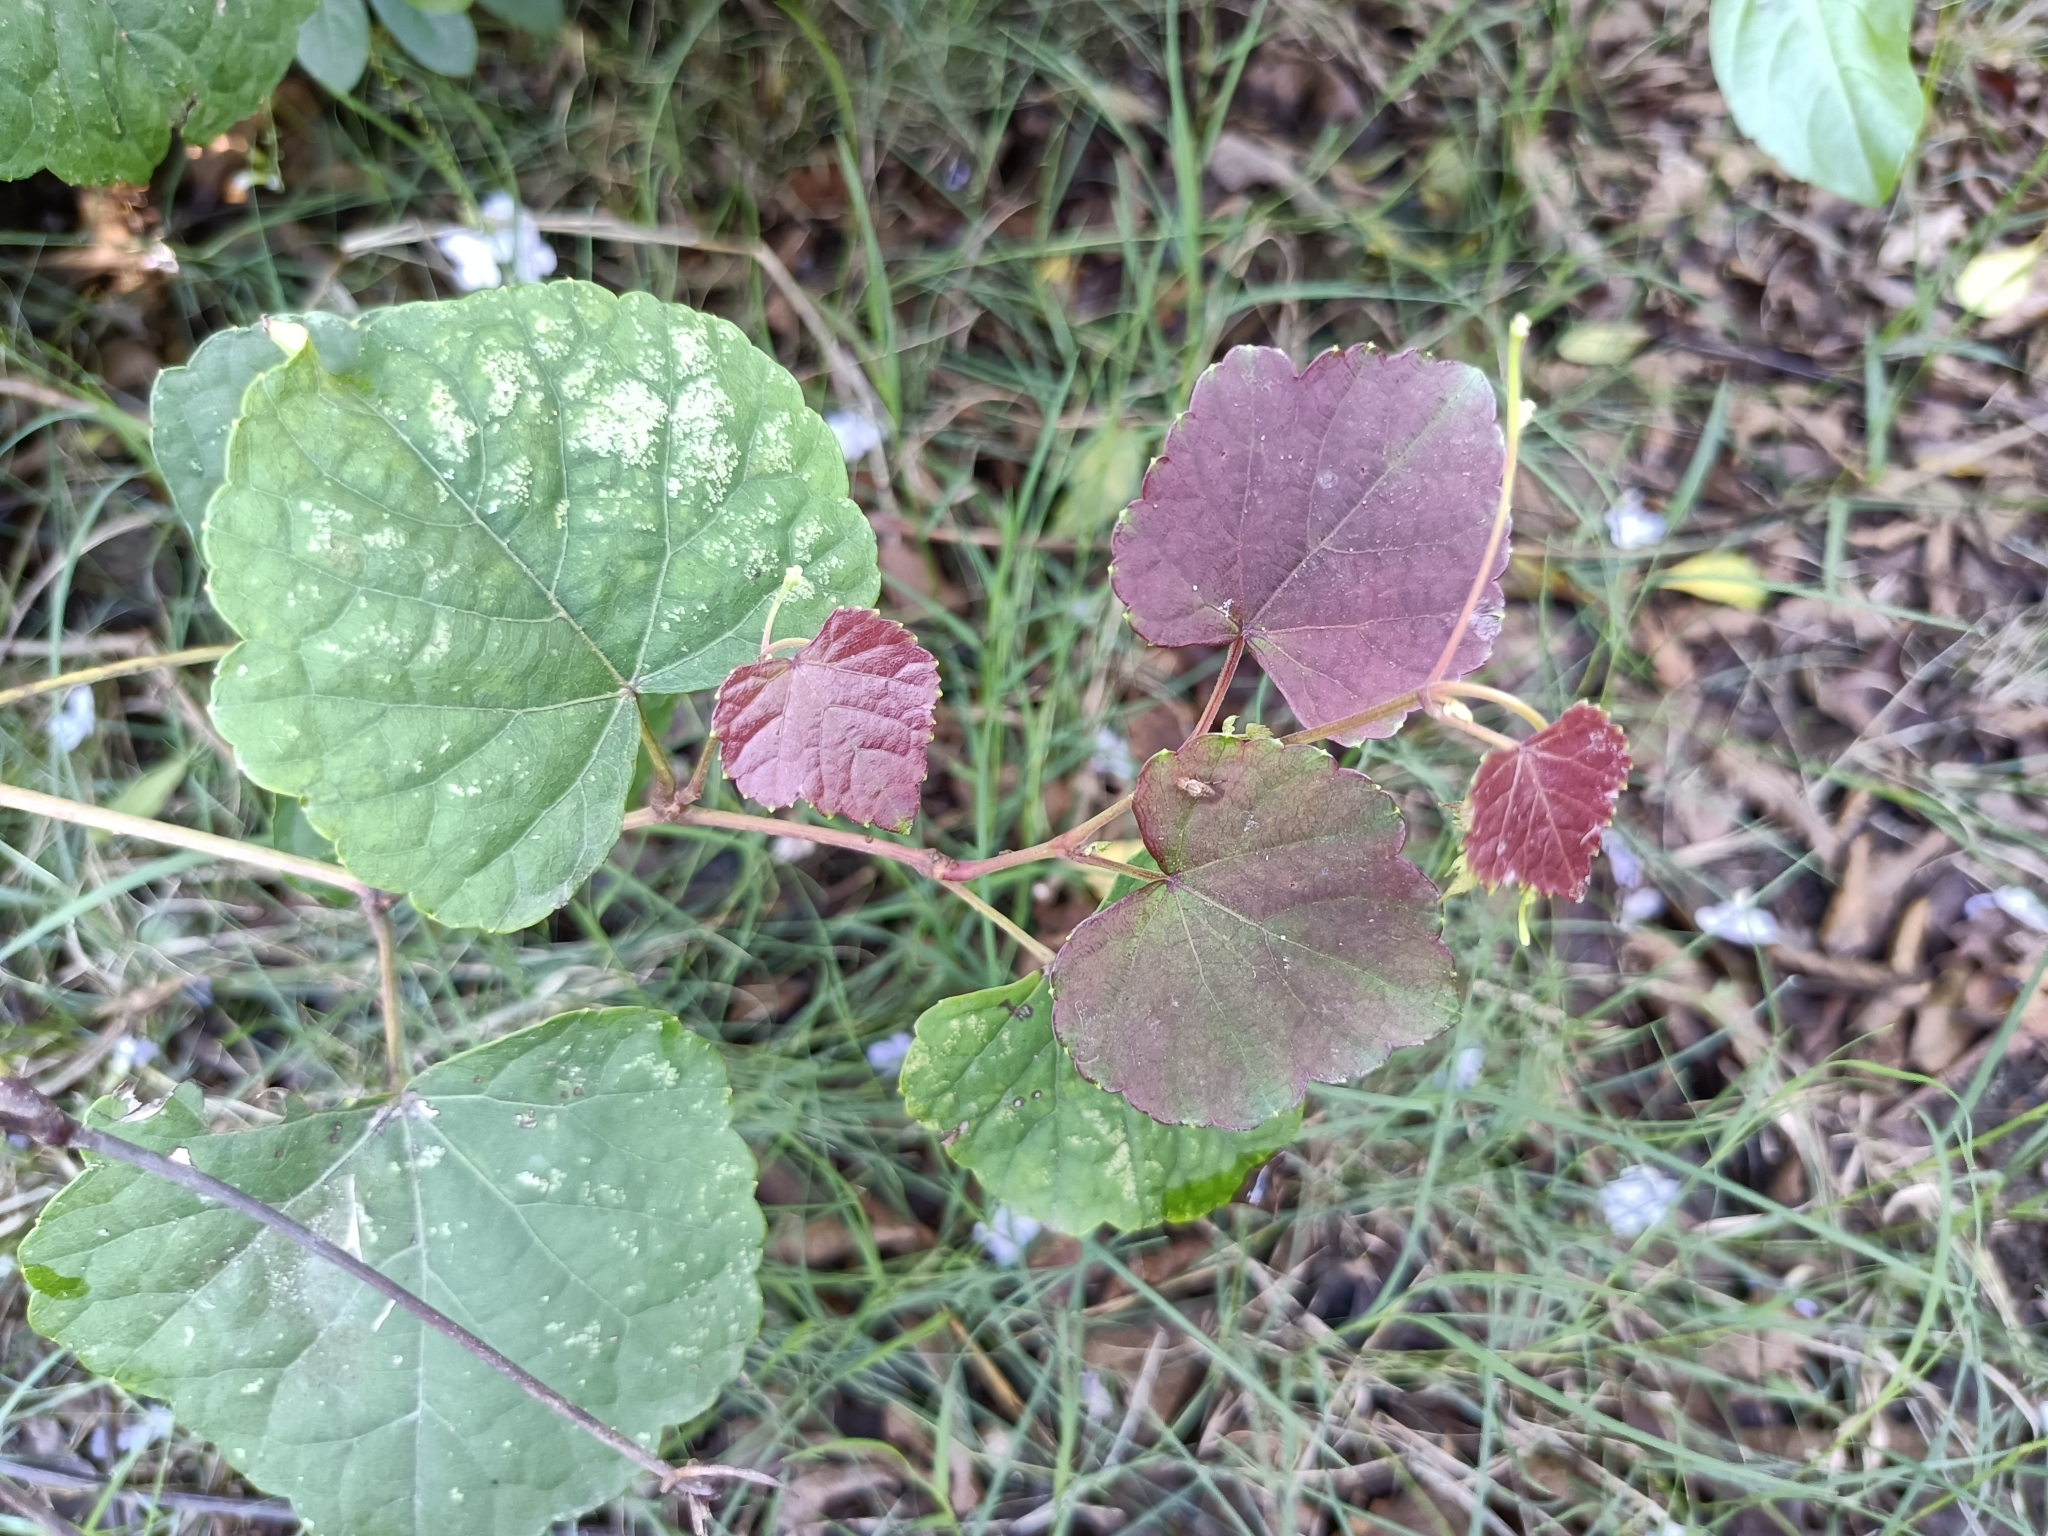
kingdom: Plantae
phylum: Tracheophyta
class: Magnoliopsida
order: Vitales
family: Vitaceae
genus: Ampelopsis
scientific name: Ampelopsis glandulosa
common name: Amur peppervine
